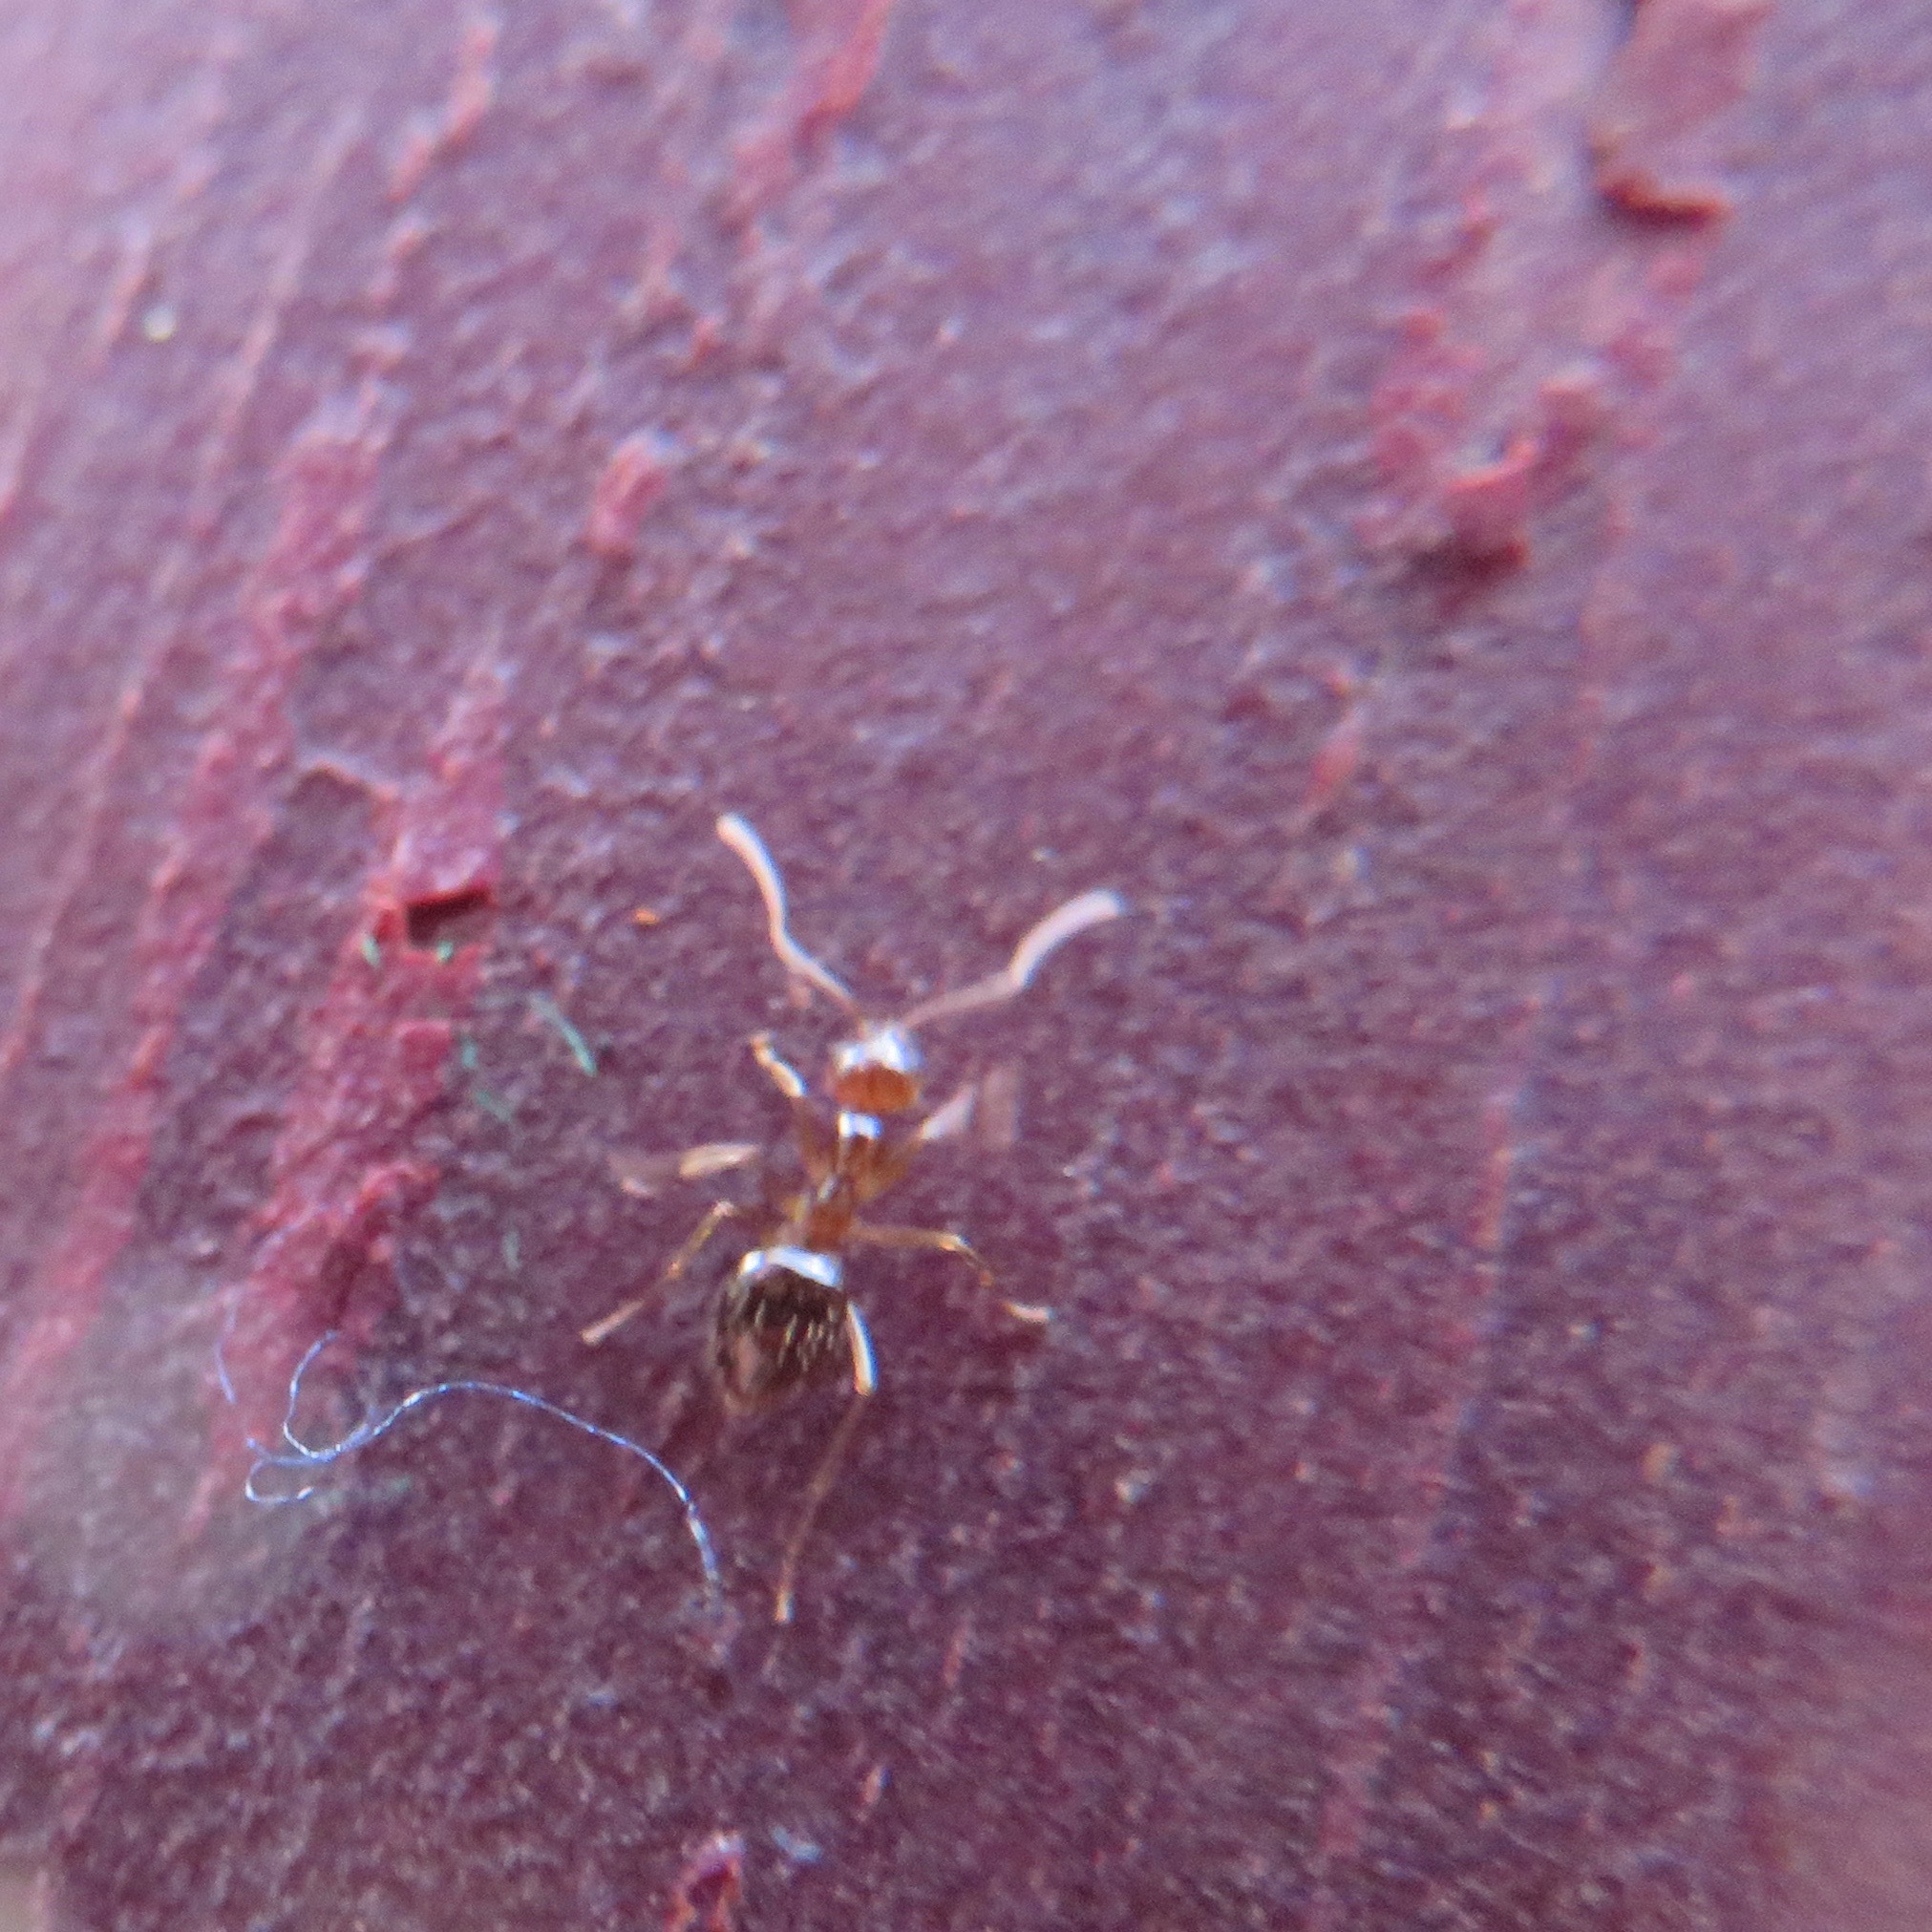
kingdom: Animalia
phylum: Arthropoda
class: Insecta
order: Hymenoptera
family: Formicidae
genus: Prenolepis
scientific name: Prenolepis imparis
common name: Small honey ant
